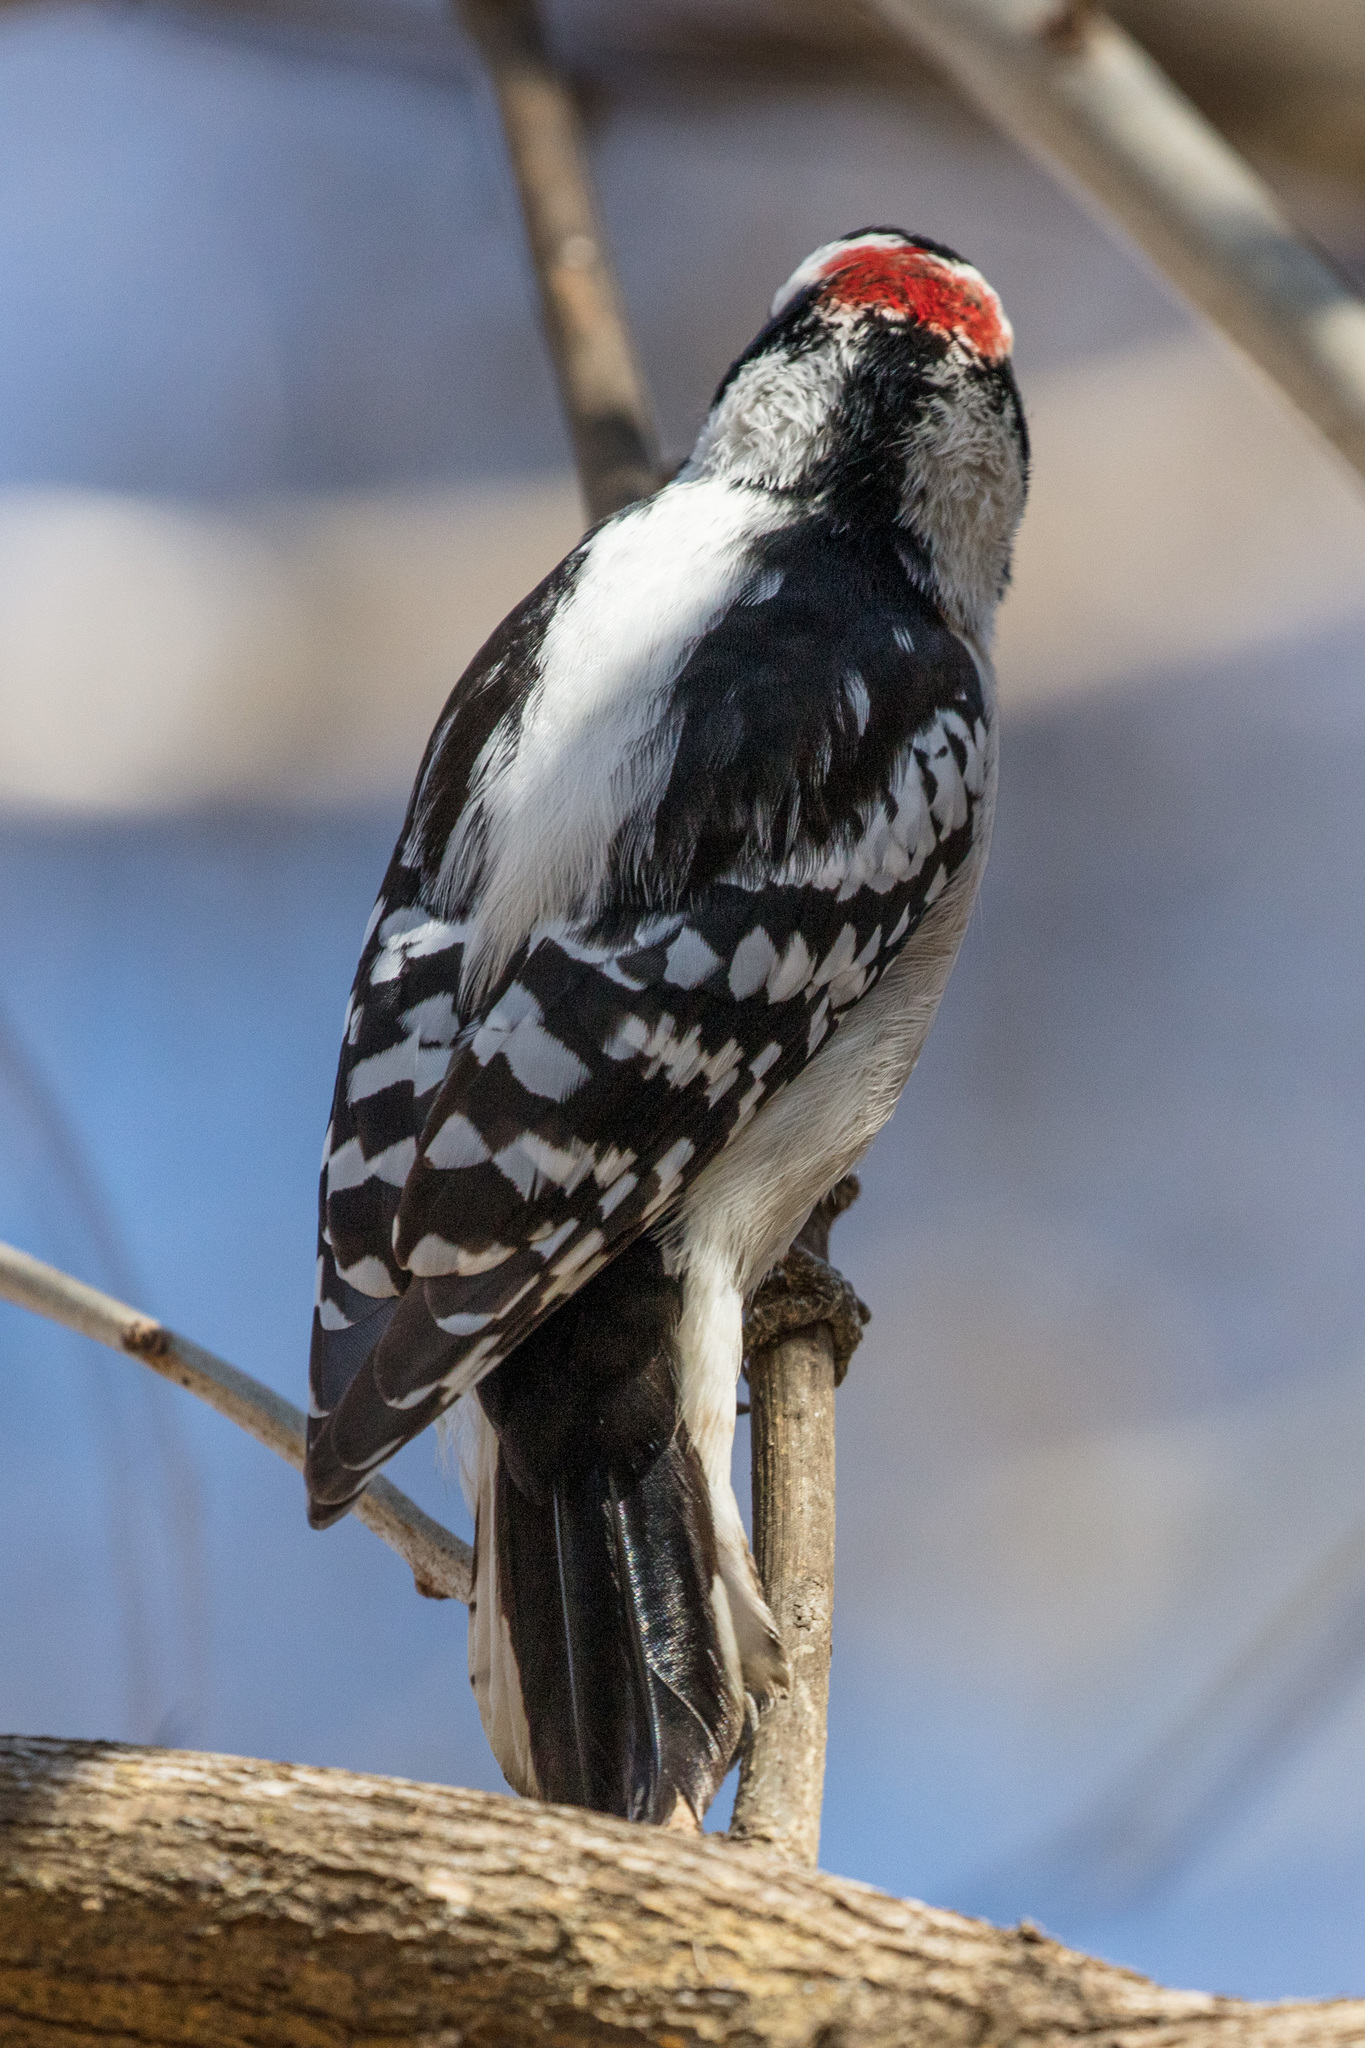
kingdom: Animalia
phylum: Chordata
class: Aves
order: Piciformes
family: Picidae
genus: Dryobates
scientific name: Dryobates pubescens
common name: Downy woodpecker
